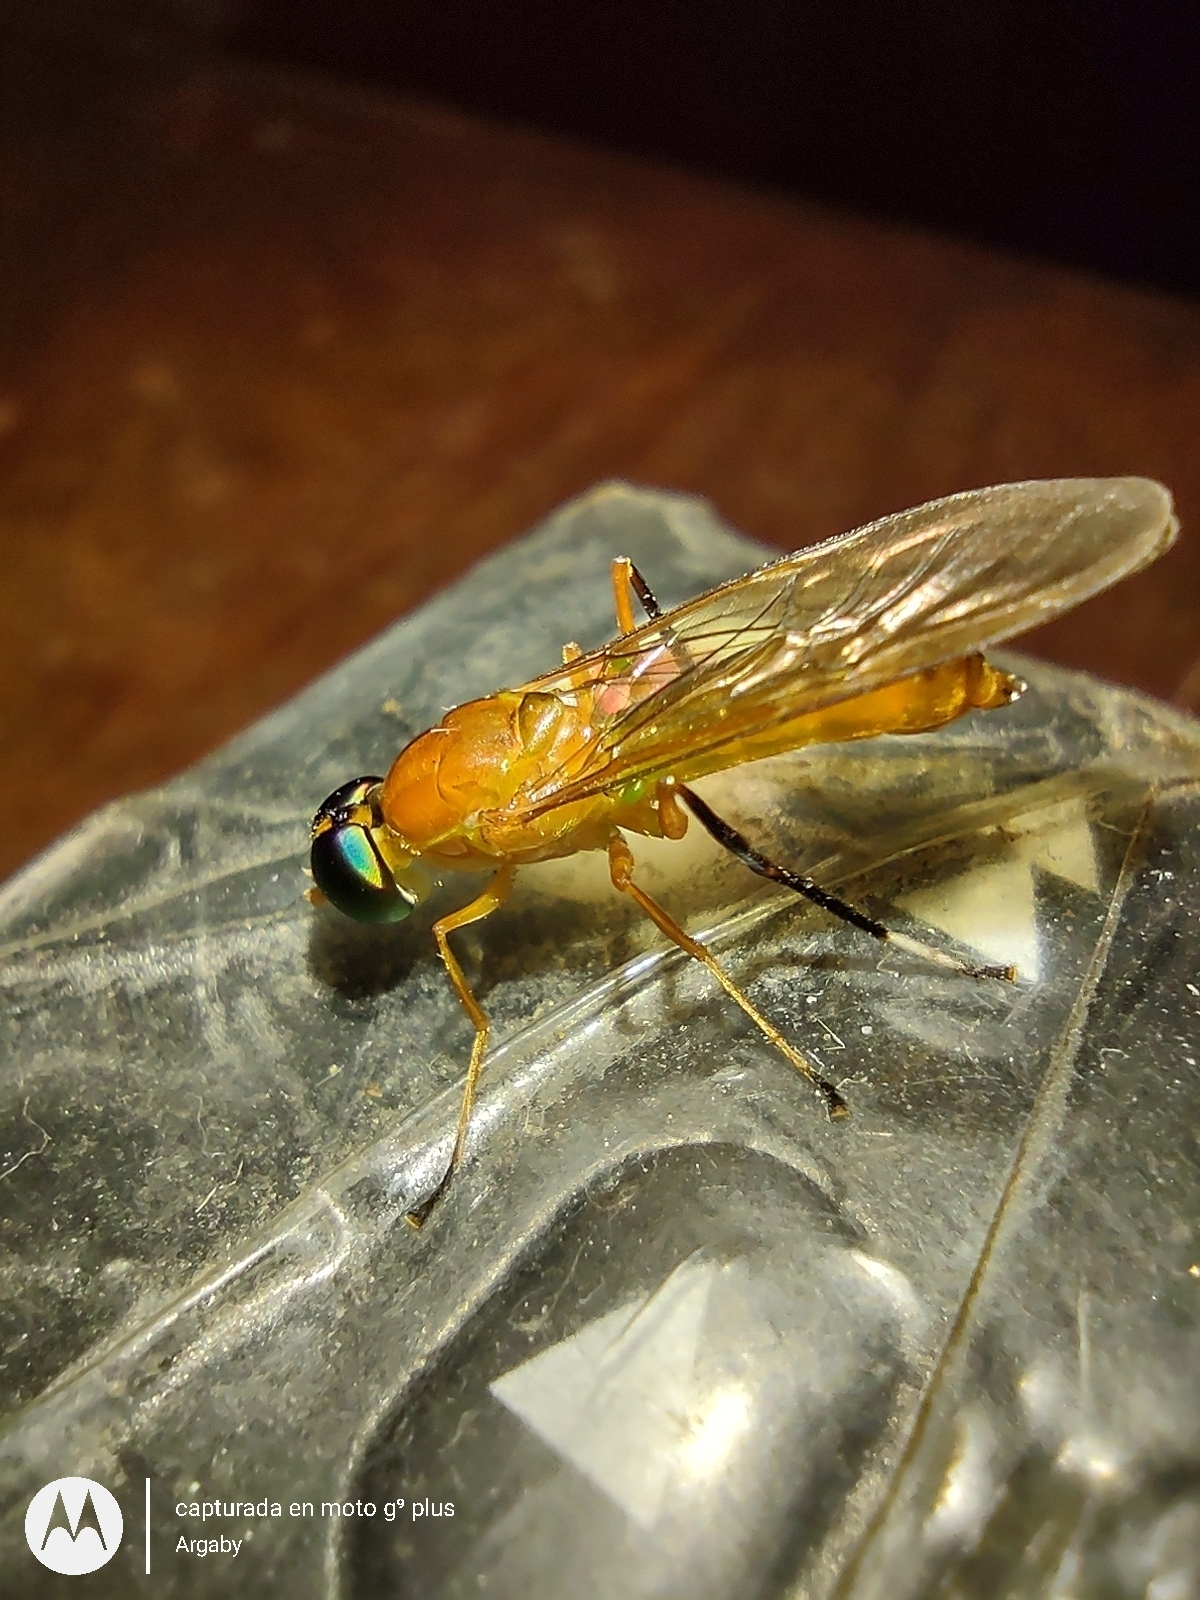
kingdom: Animalia
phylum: Arthropoda
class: Insecta
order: Diptera
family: Stratiomyidae
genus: Ptecticus
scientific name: Ptecticus testaceus
